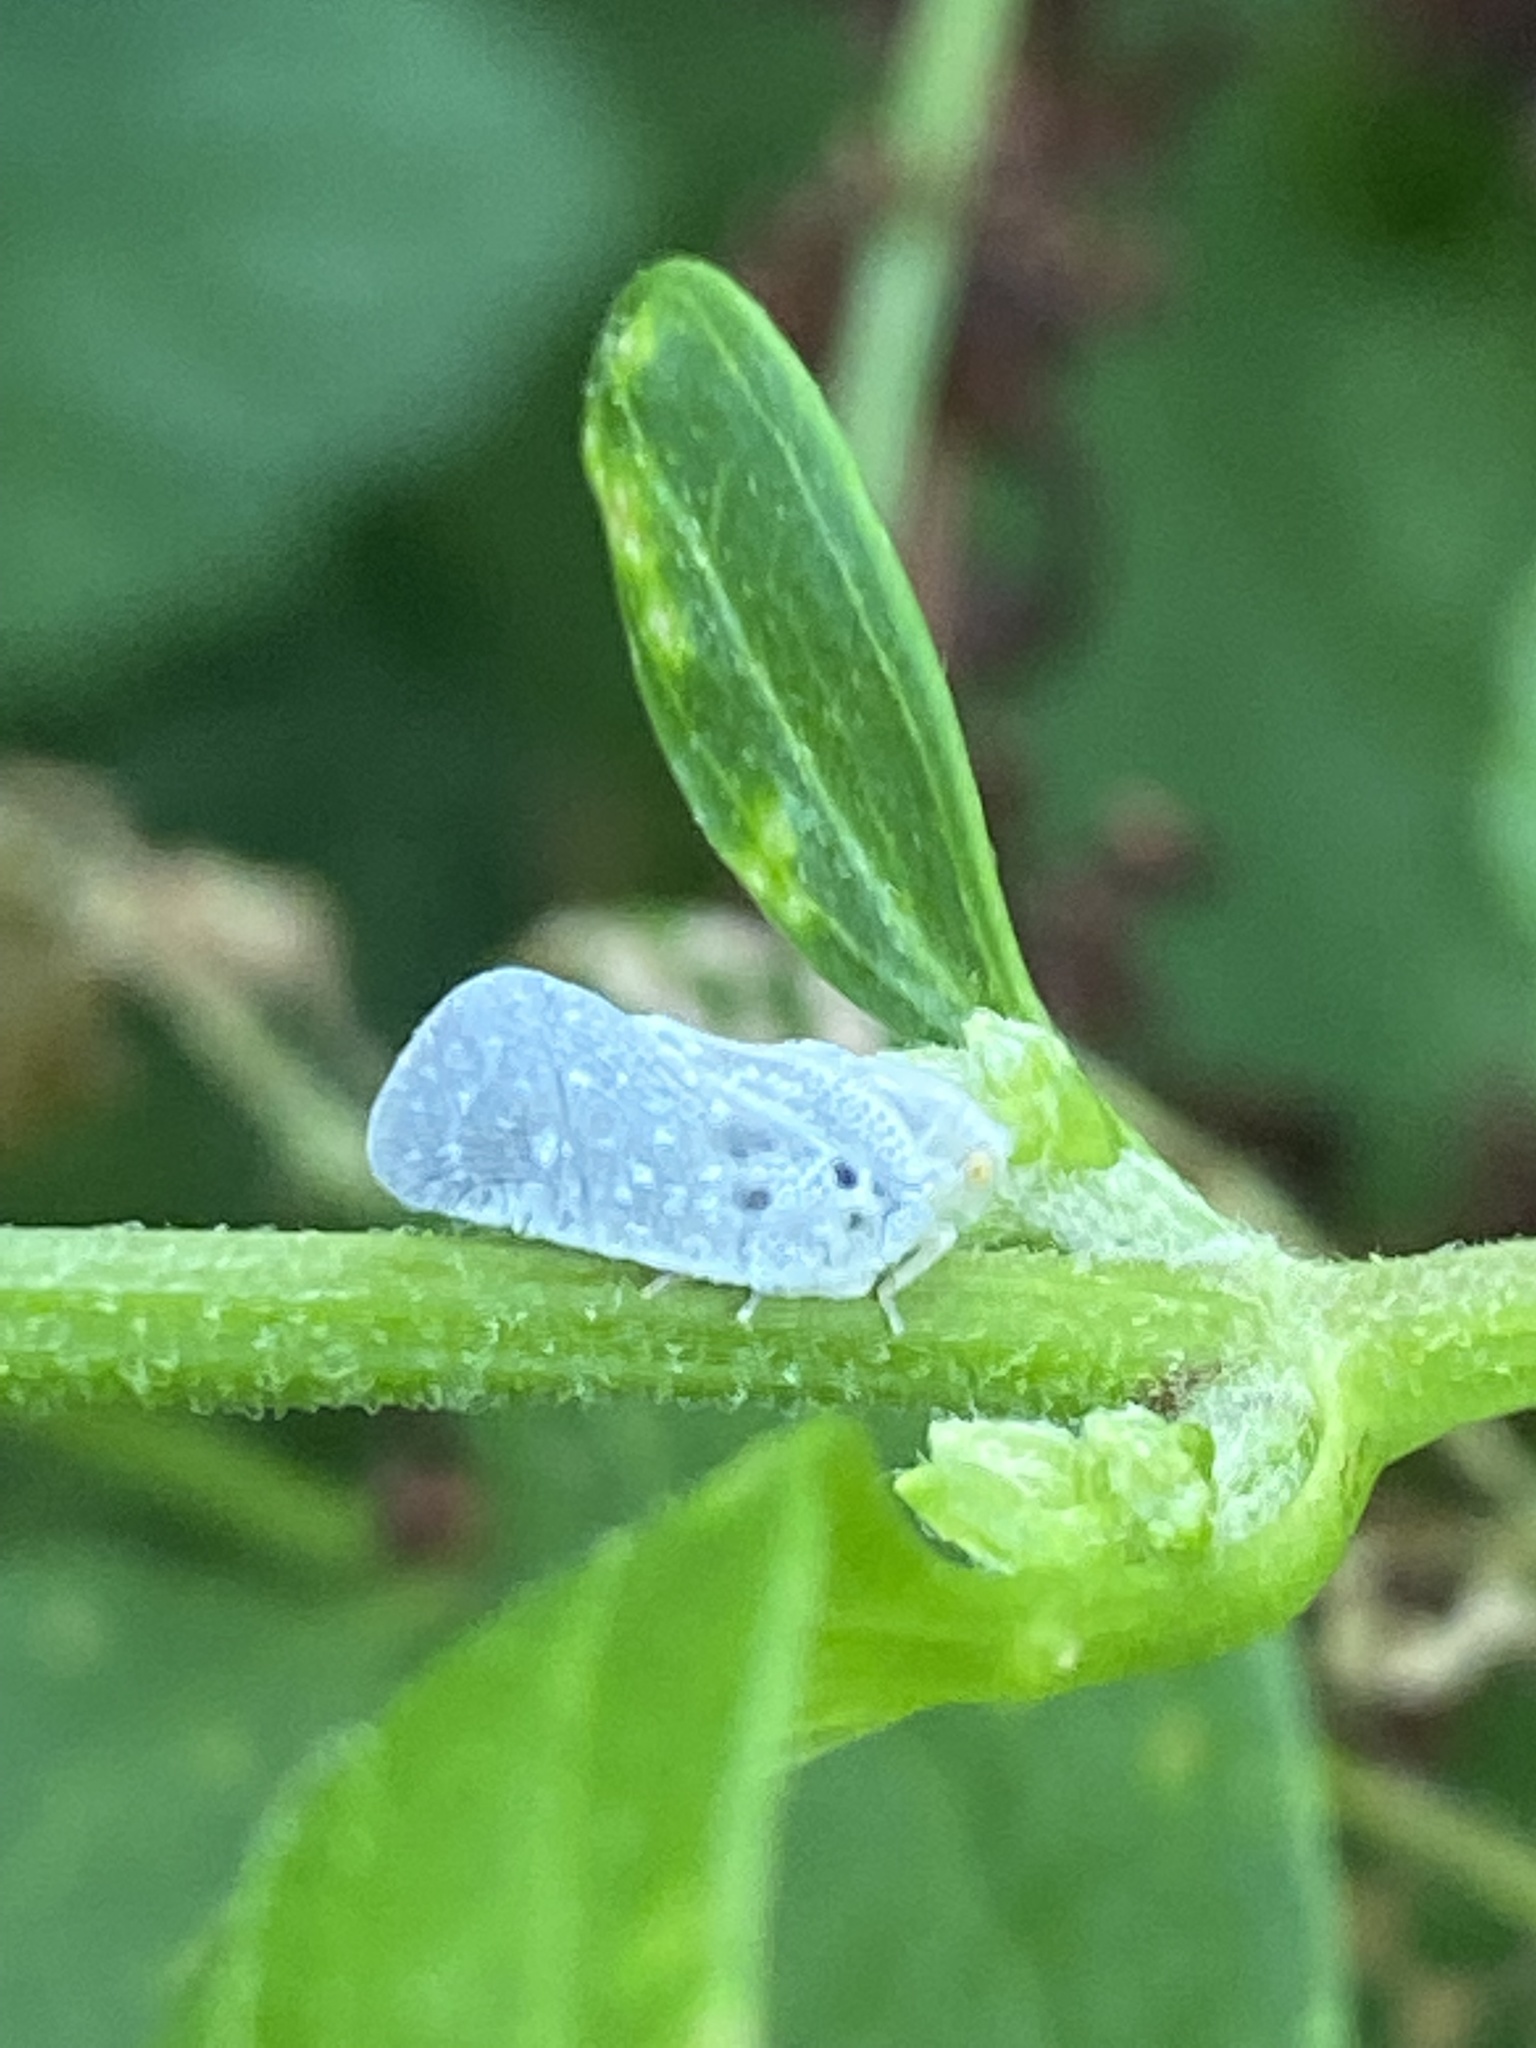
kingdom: Animalia
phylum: Arthropoda
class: Insecta
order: Hemiptera
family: Flatidae
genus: Metcalfa
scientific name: Metcalfa pruinosa
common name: Citrus flatid planthopper
